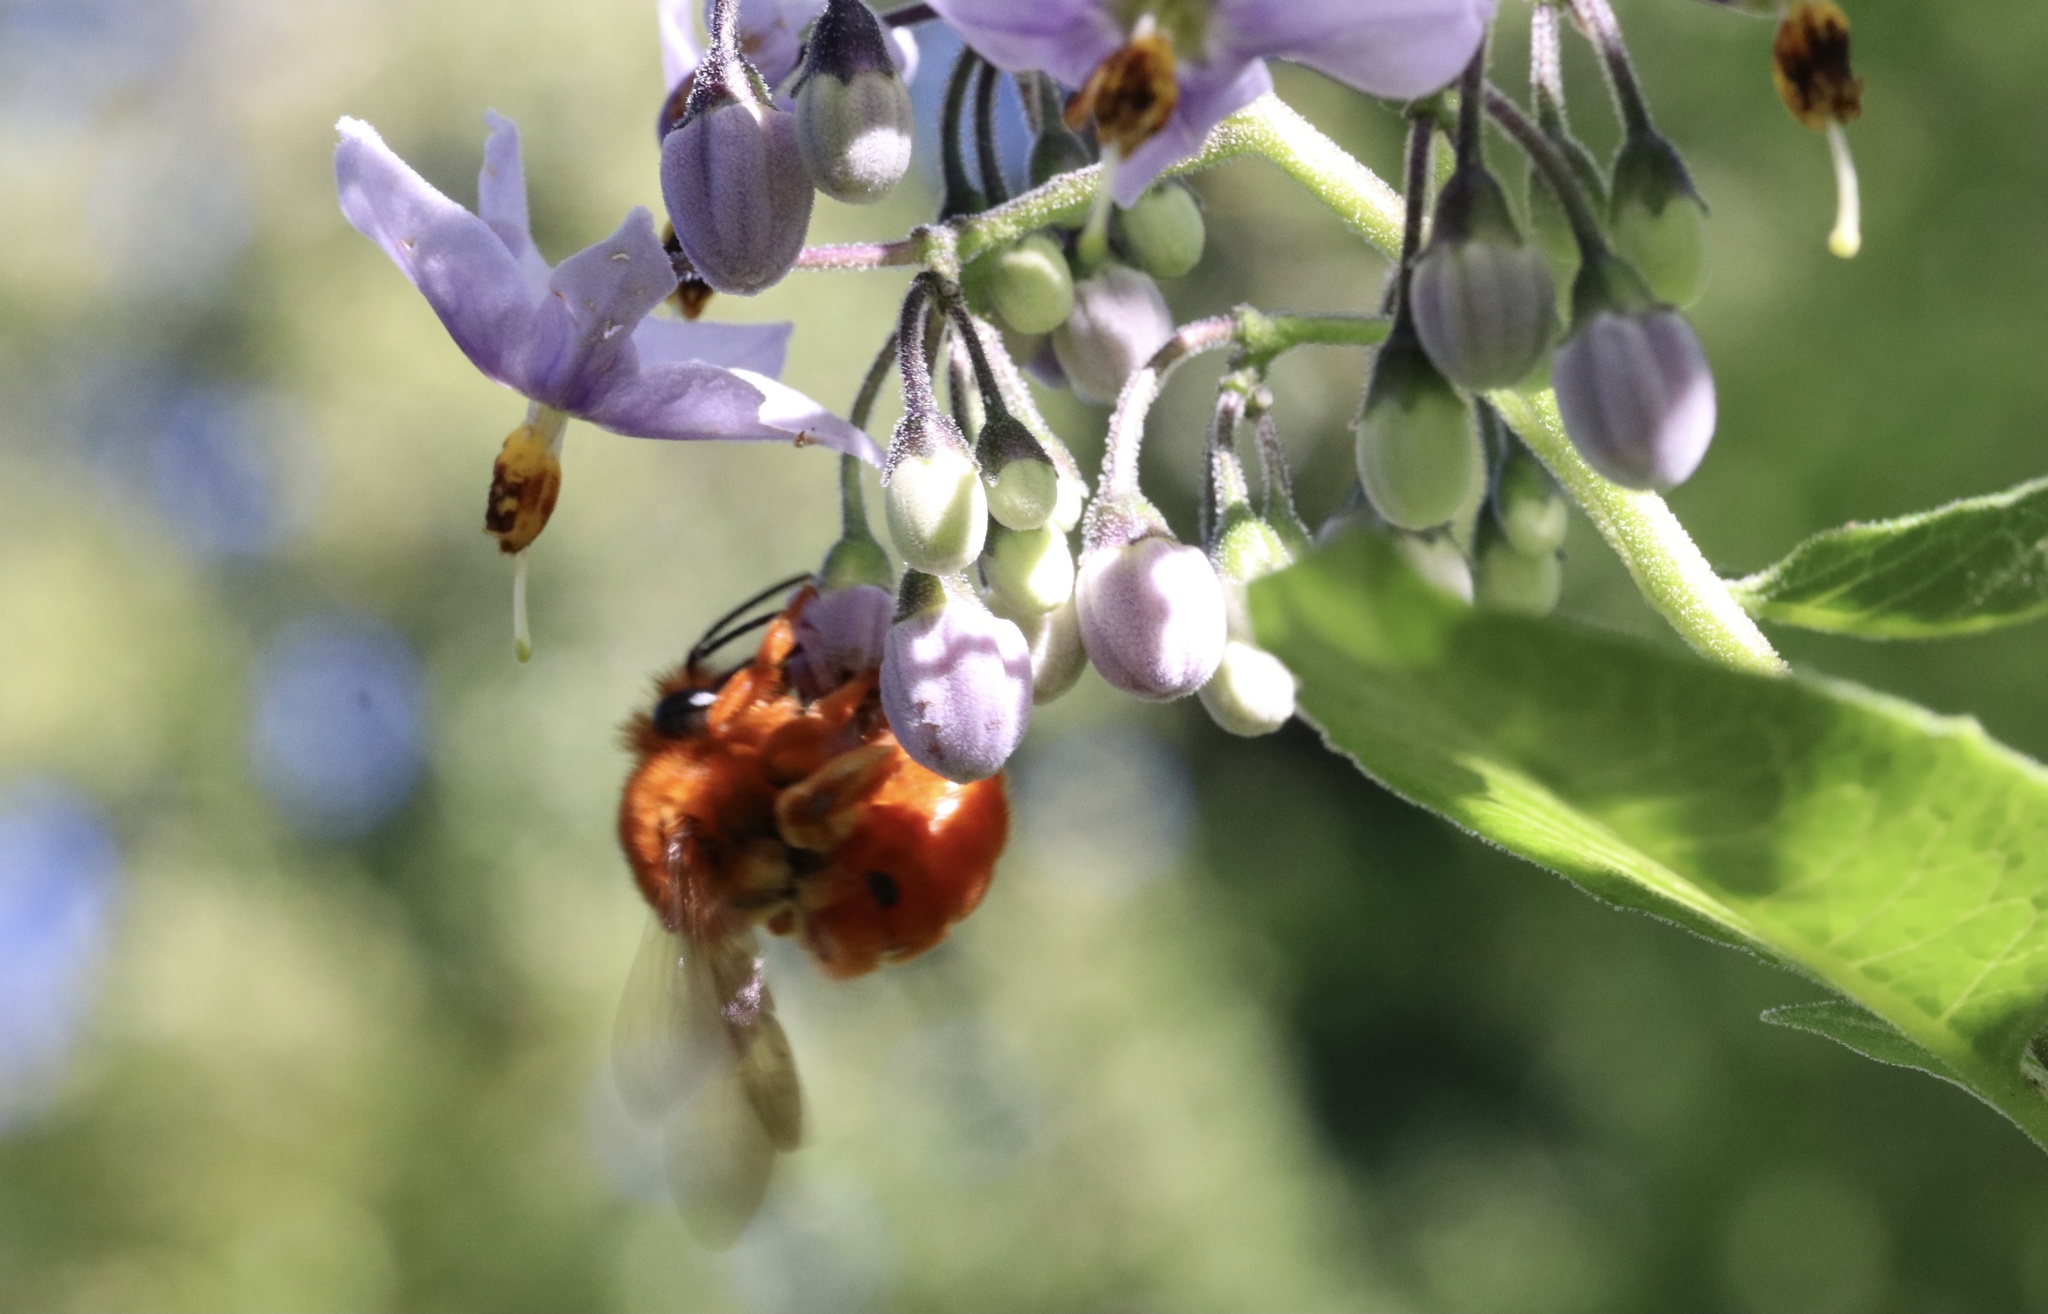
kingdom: Animalia
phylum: Arthropoda
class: Insecta
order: Hymenoptera
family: Colletidae
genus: Diphaglossa
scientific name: Diphaglossa gayi
